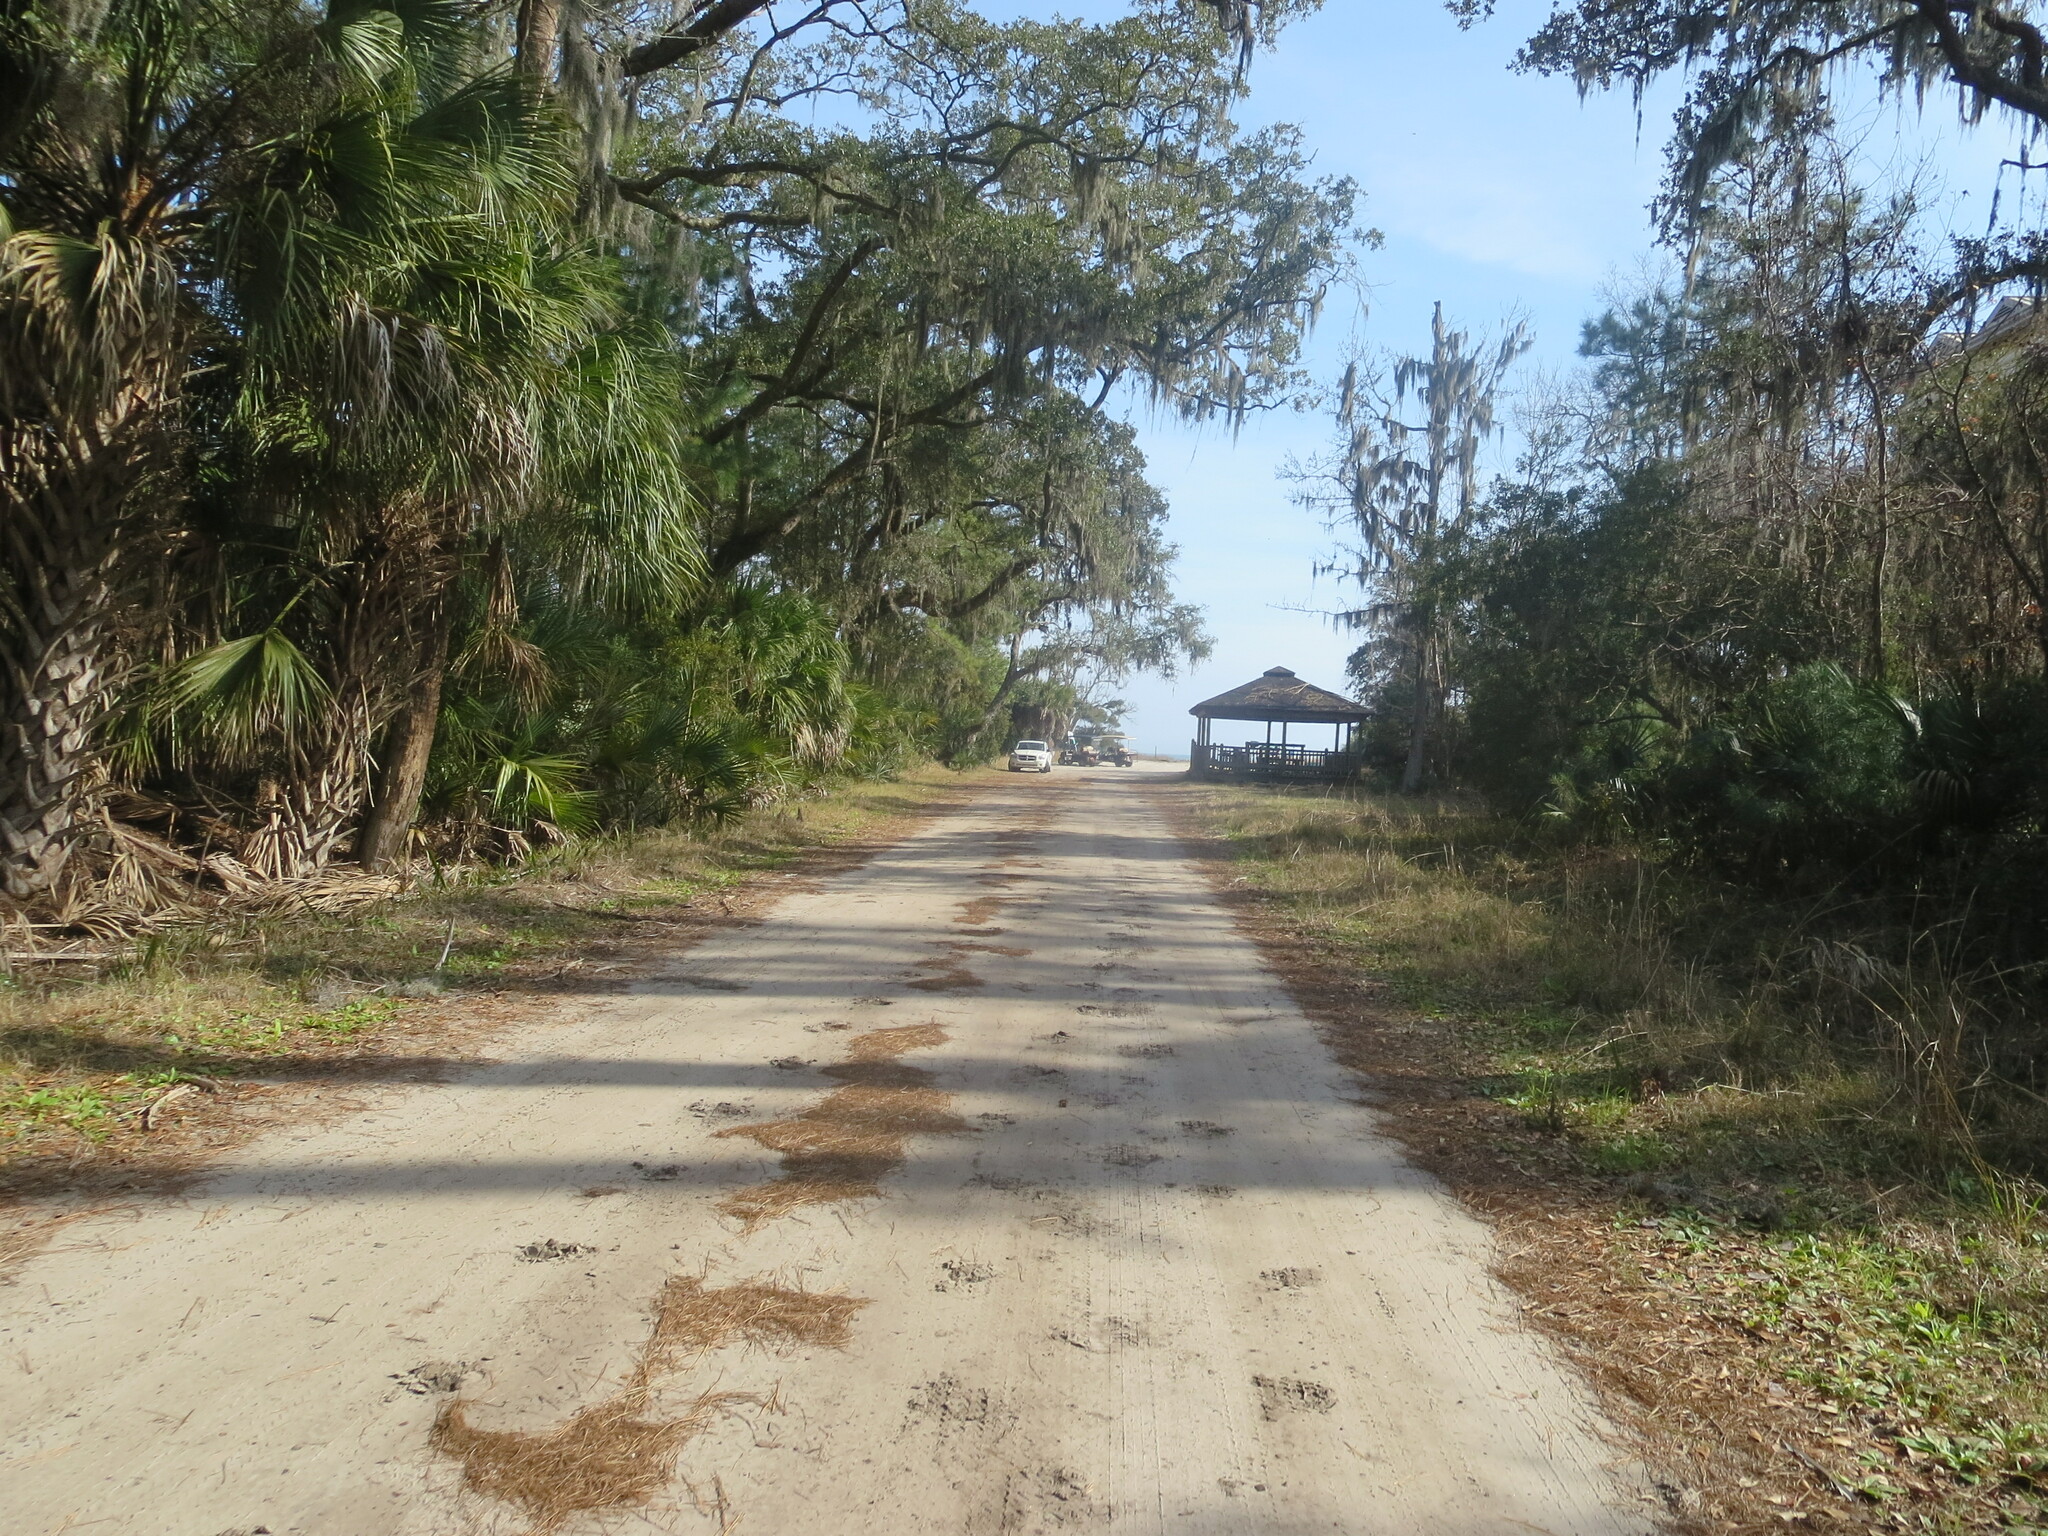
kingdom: Plantae
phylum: Tracheophyta
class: Liliopsida
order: Arecales
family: Arecaceae
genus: Sabal
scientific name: Sabal palmetto
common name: Blue palmetto
